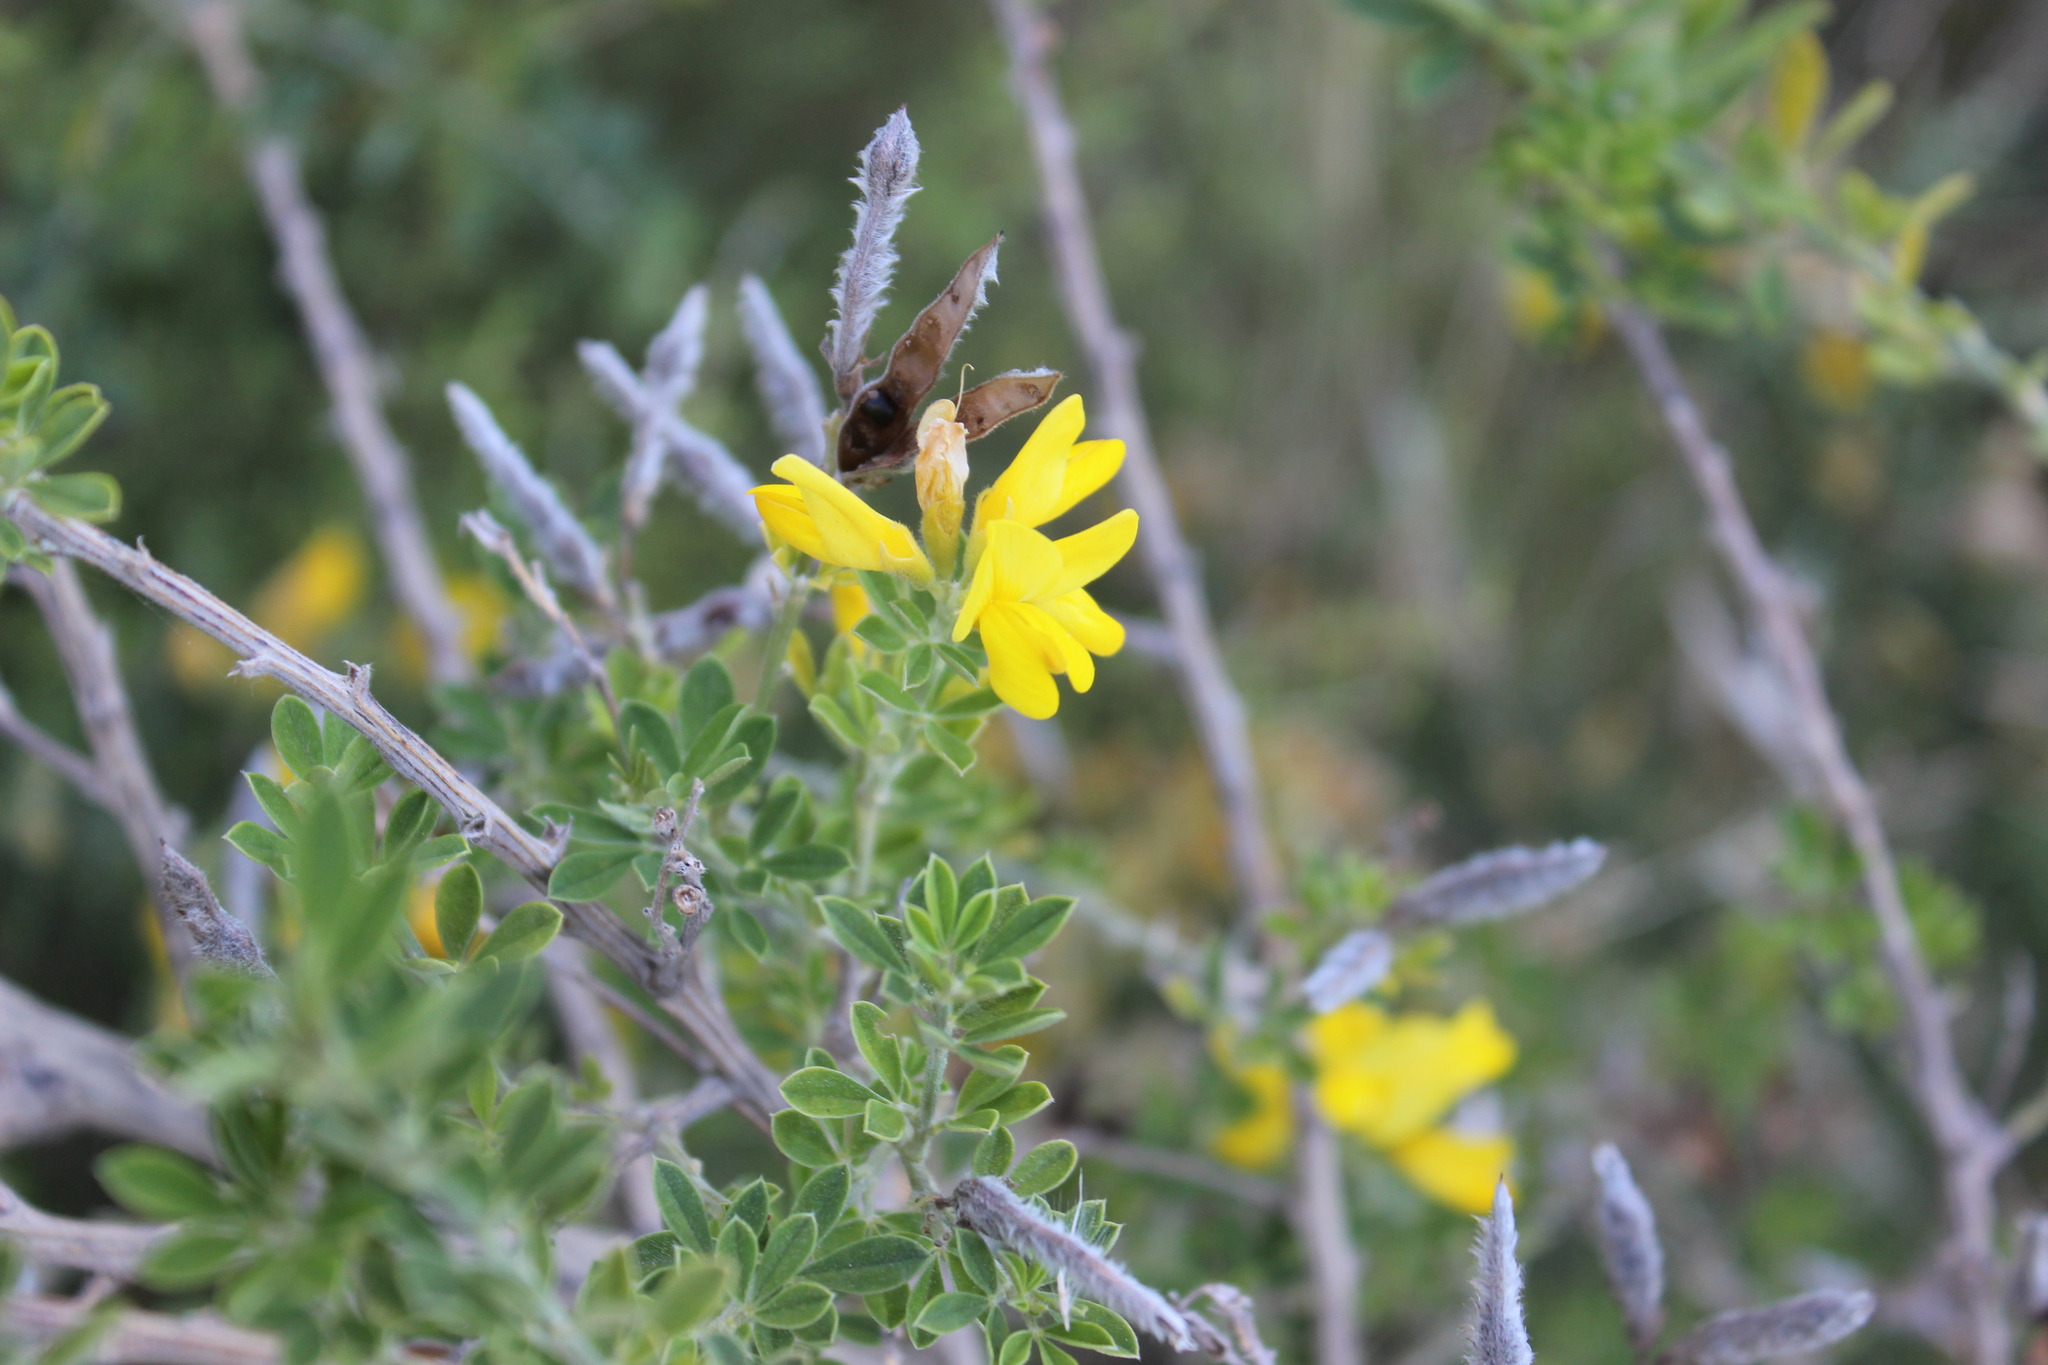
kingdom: Plantae
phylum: Tracheophyta
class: Magnoliopsida
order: Fabales
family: Fabaceae
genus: Genista
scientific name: Genista monspessulana
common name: Montpellier broom
